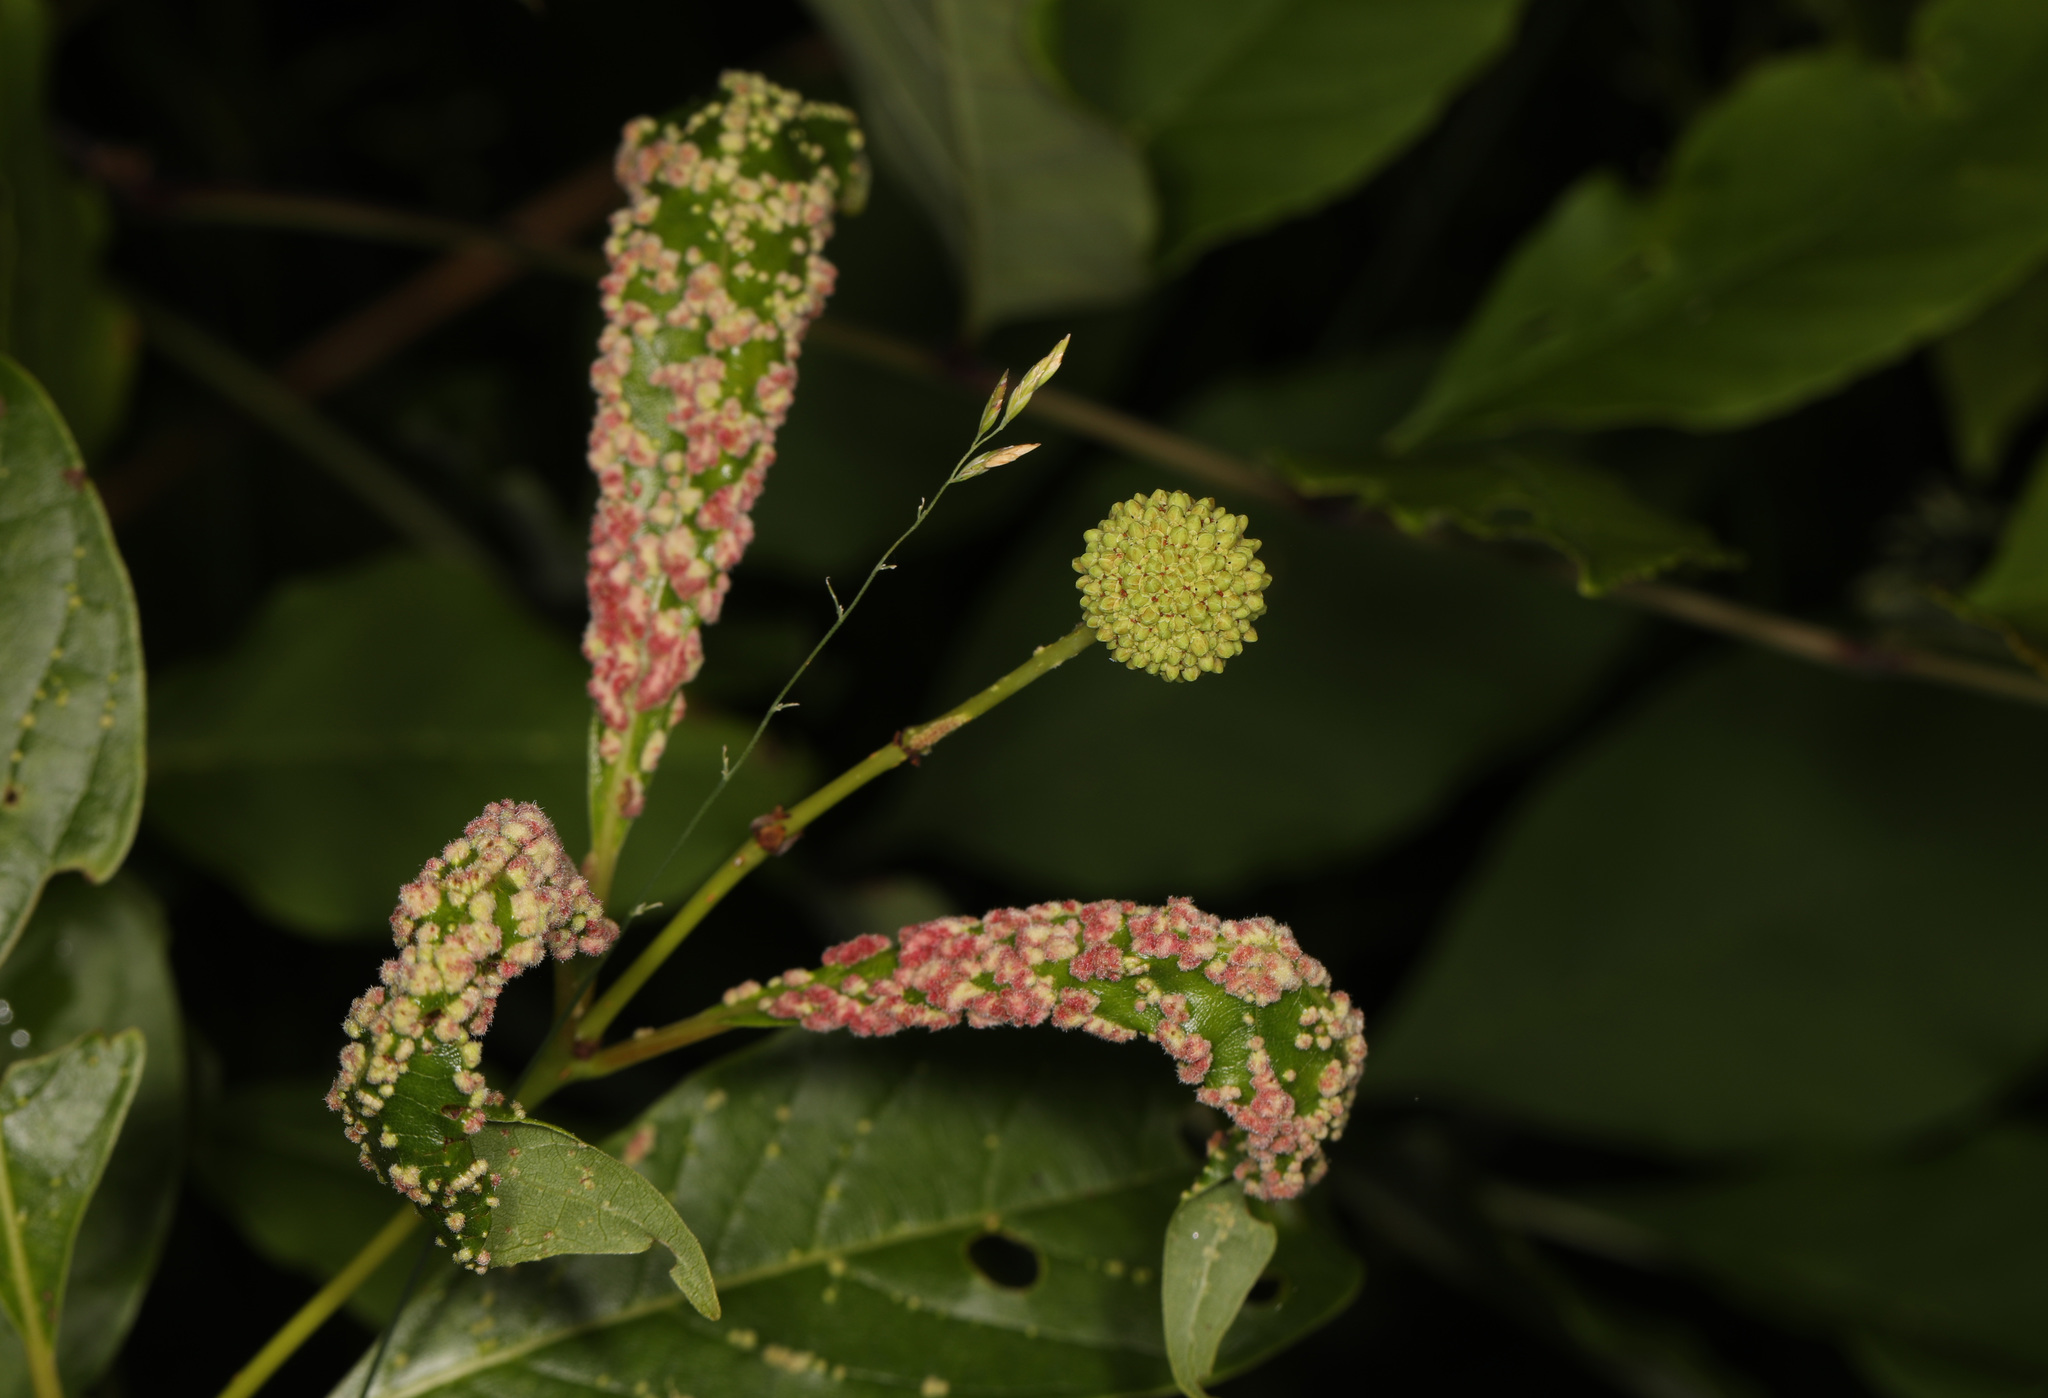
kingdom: Animalia
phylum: Arthropoda
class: Arachnida
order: Trombidiformes
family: Eriophyidae
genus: Aceria
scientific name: Aceria
